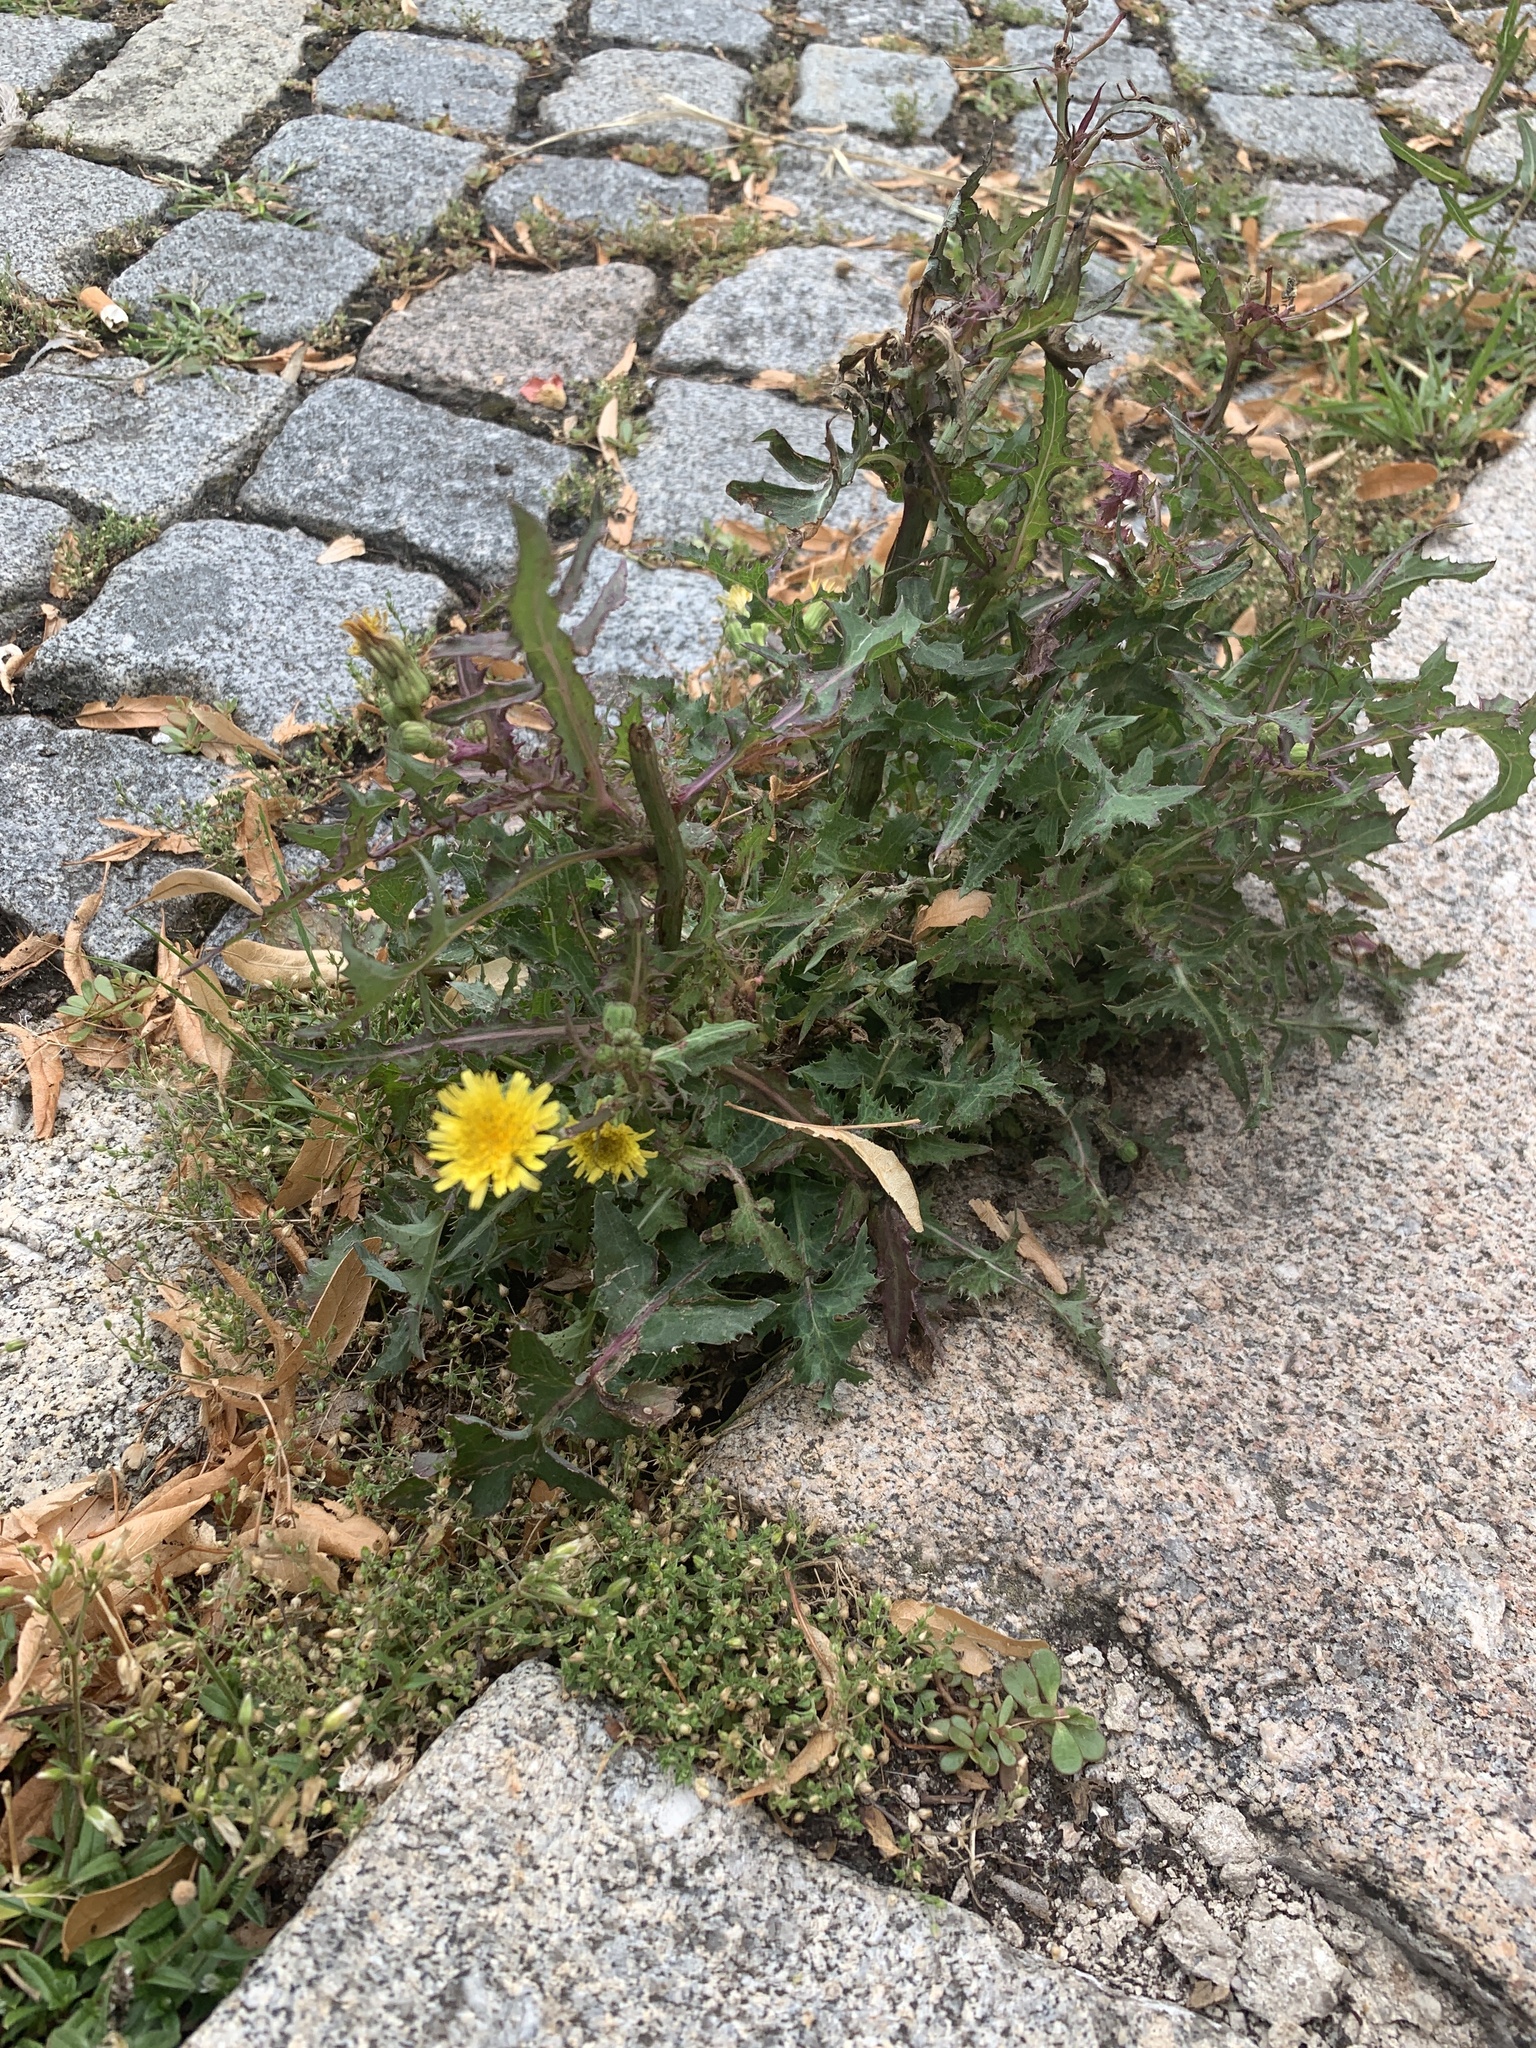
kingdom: Plantae
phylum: Tracheophyta
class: Magnoliopsida
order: Asterales
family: Asteraceae
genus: Sonchus
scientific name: Sonchus oleraceus
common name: Common sowthistle
